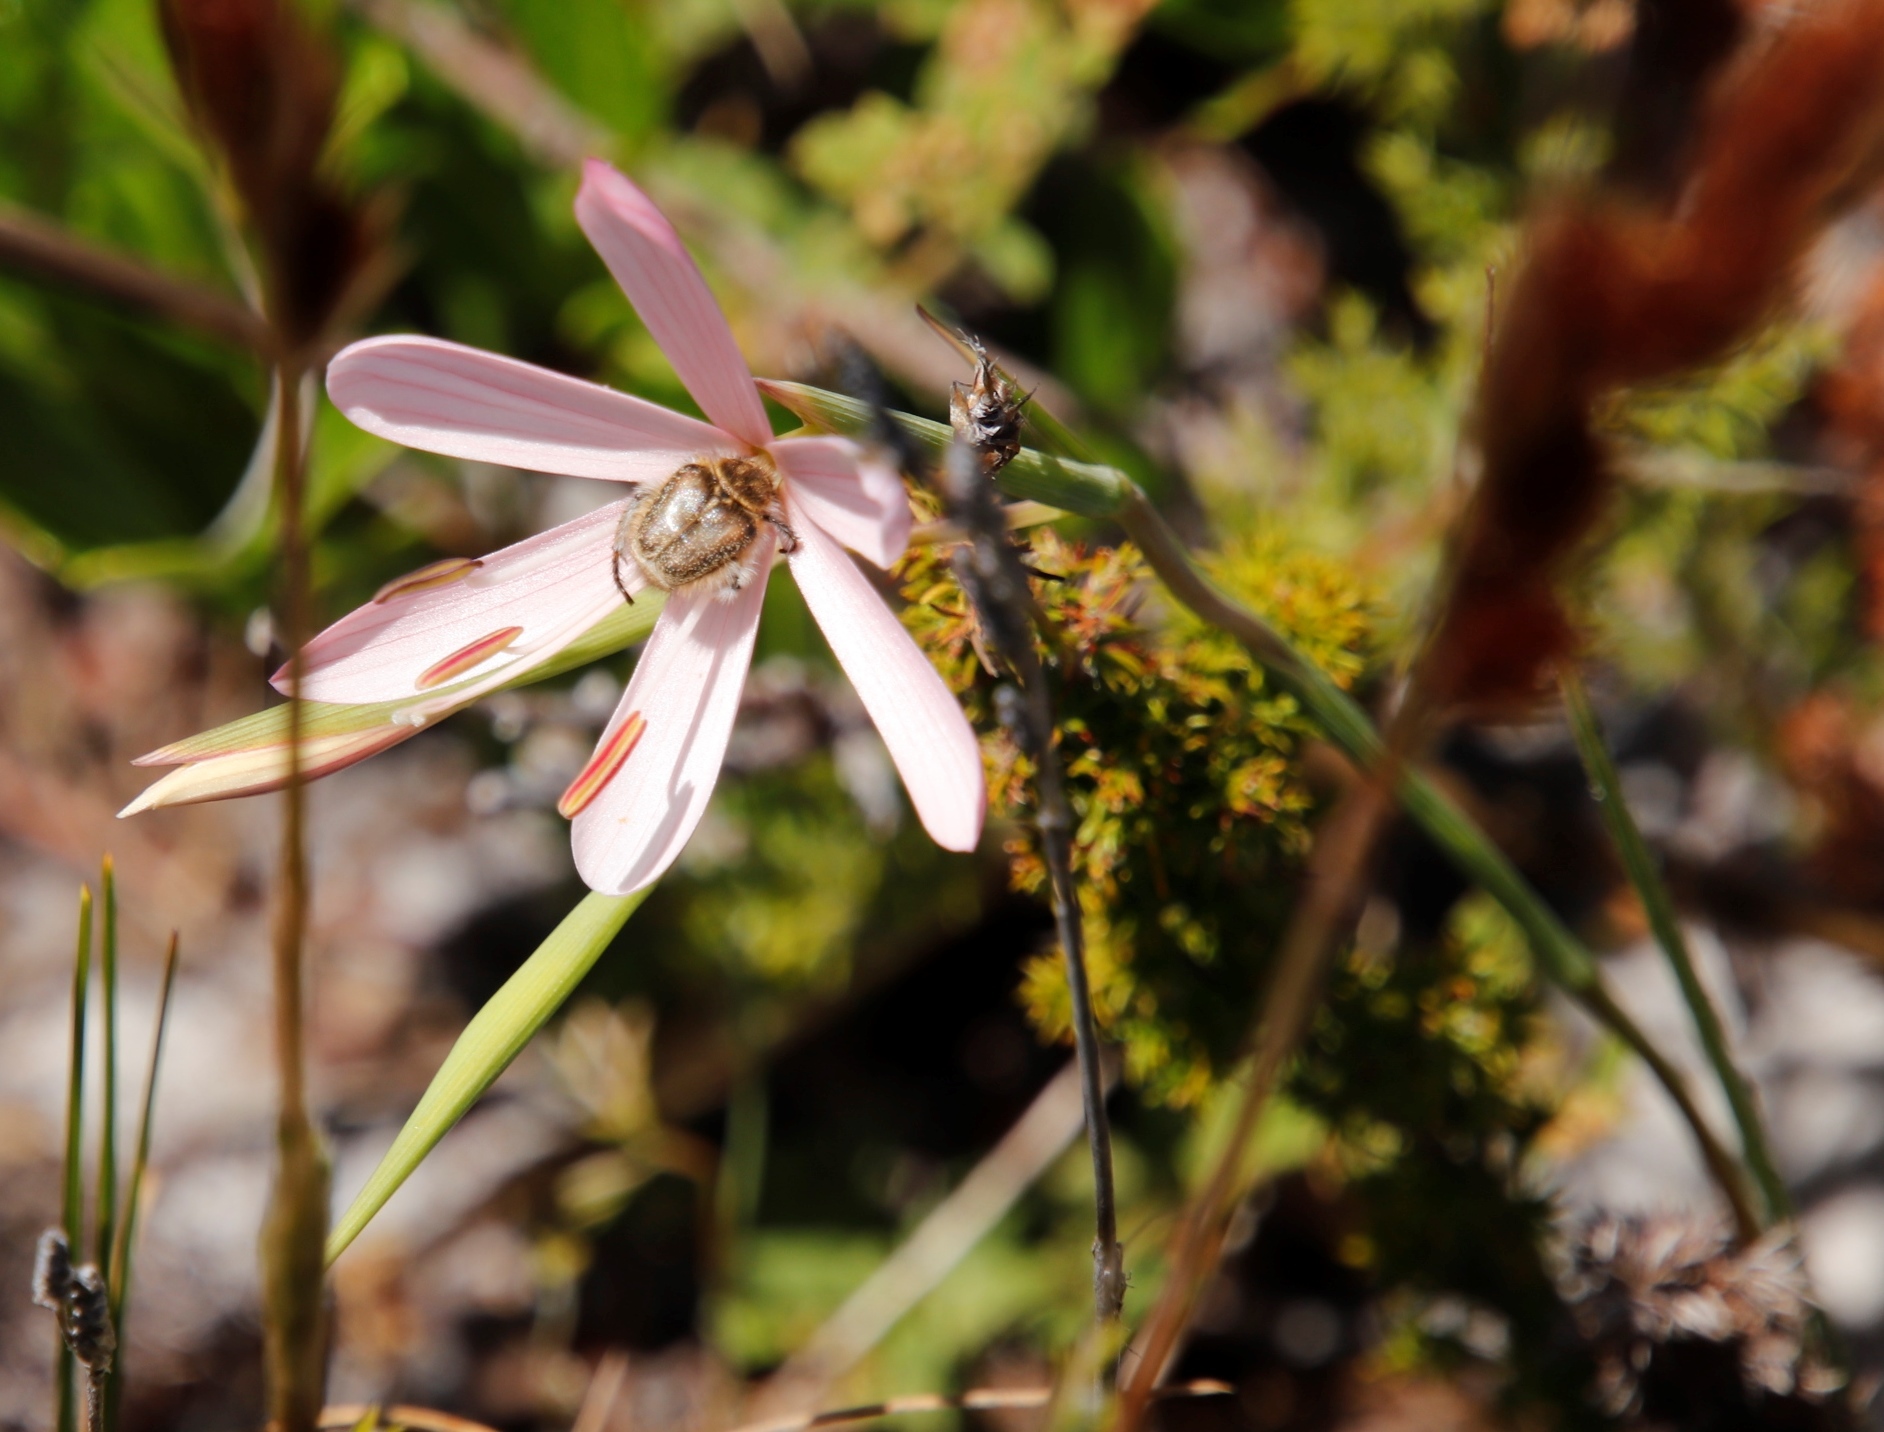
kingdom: Plantae
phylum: Tracheophyta
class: Liliopsida
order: Asparagales
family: Iridaceae
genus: Geissorhiza
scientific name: Geissorhiza bonae-spei
